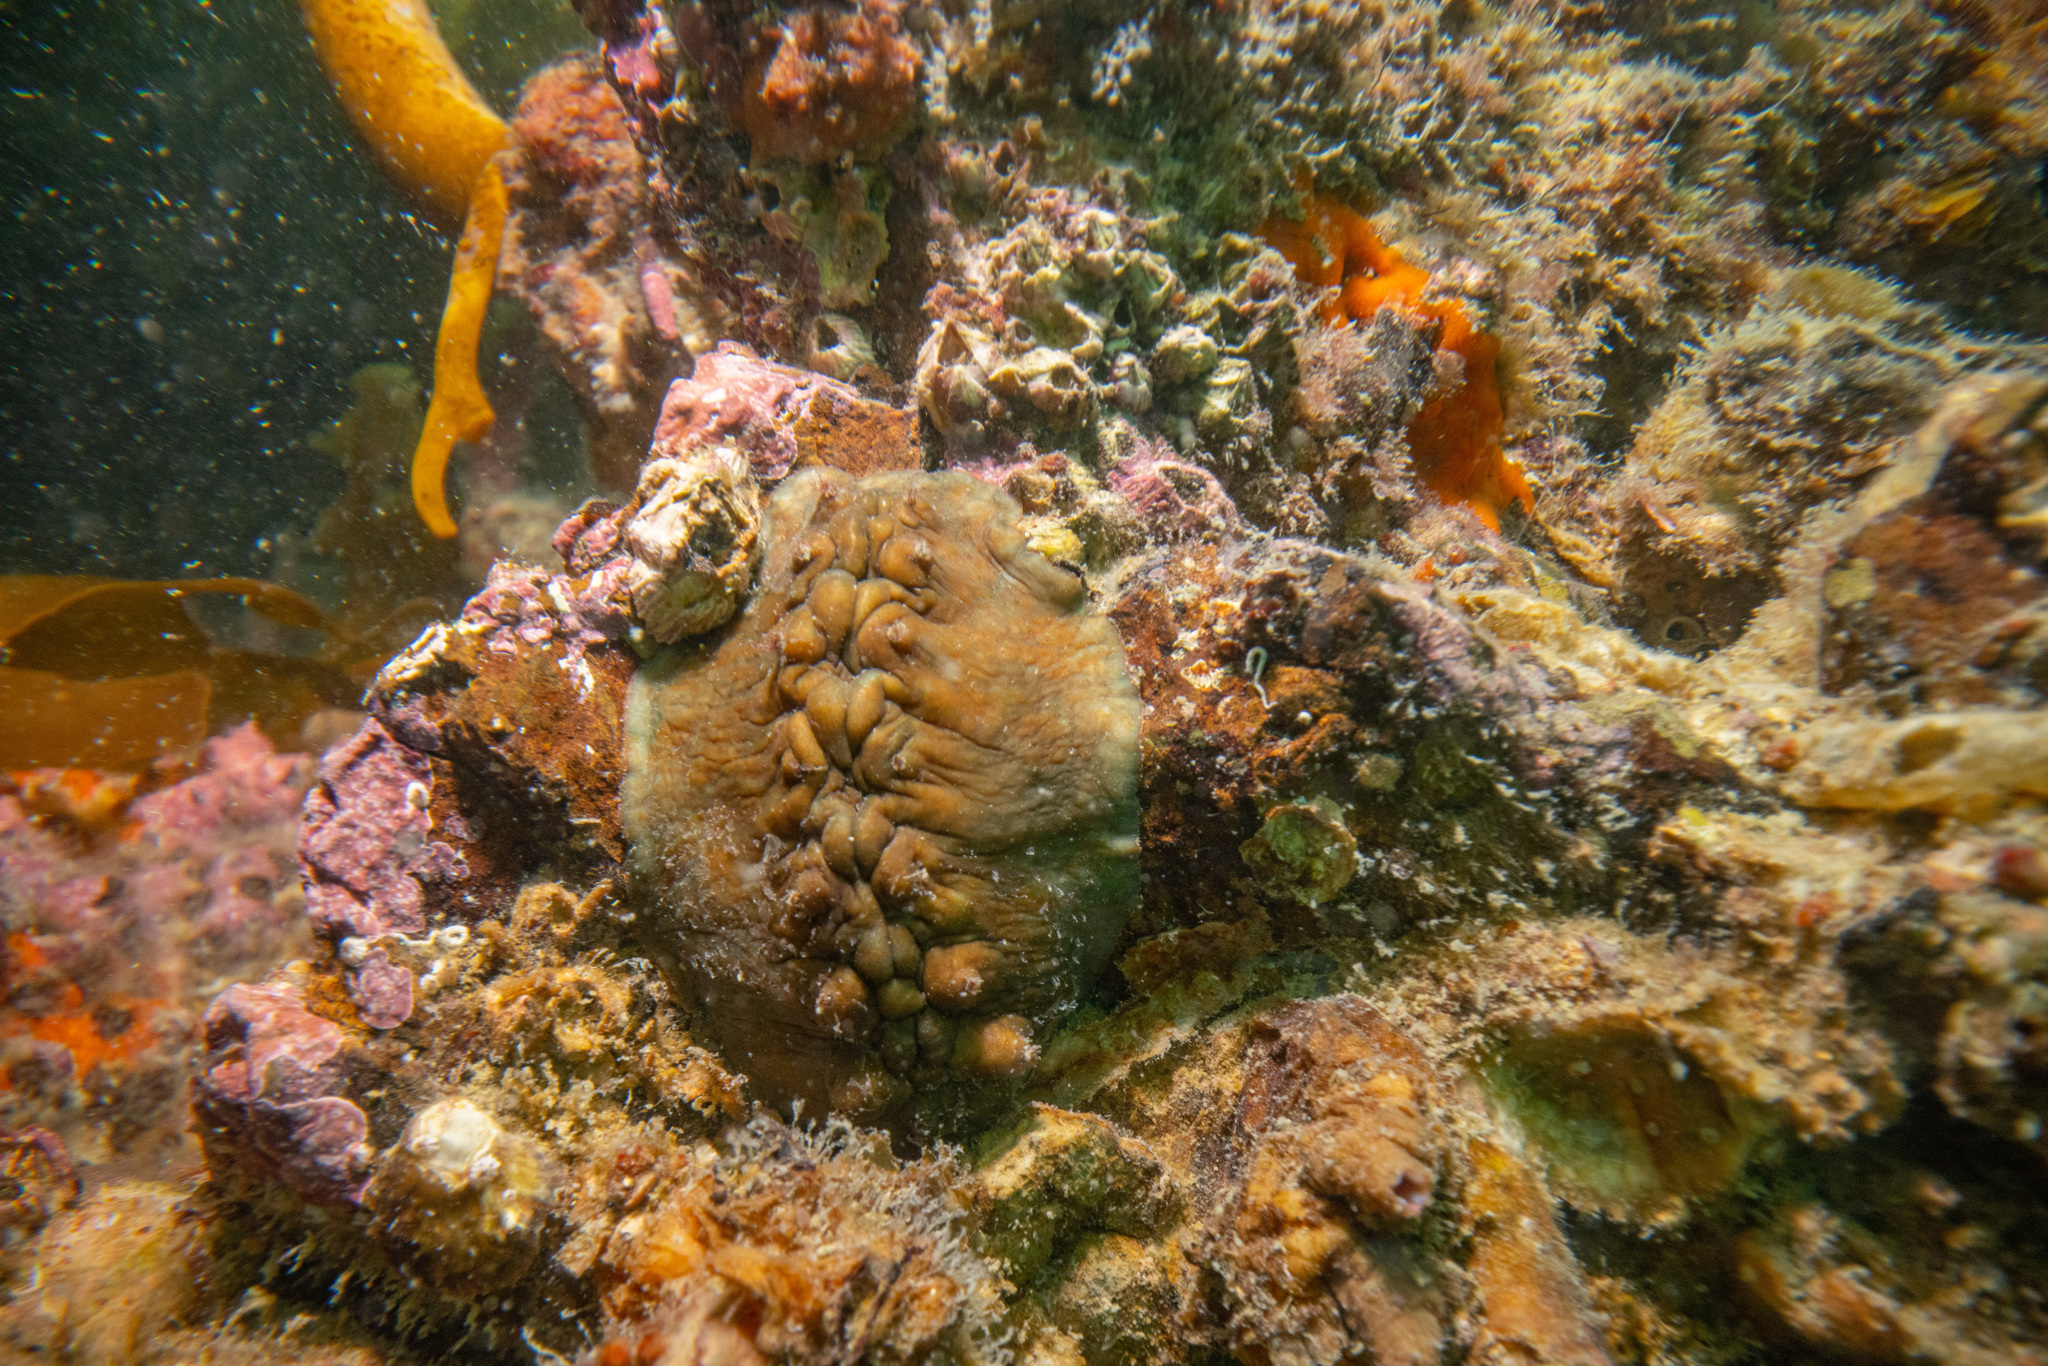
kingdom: Animalia
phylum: Mollusca
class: Polyplacophora
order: Chitonida
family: Acanthochitonidae
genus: Cryptoconchus
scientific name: Cryptoconchus porosus
